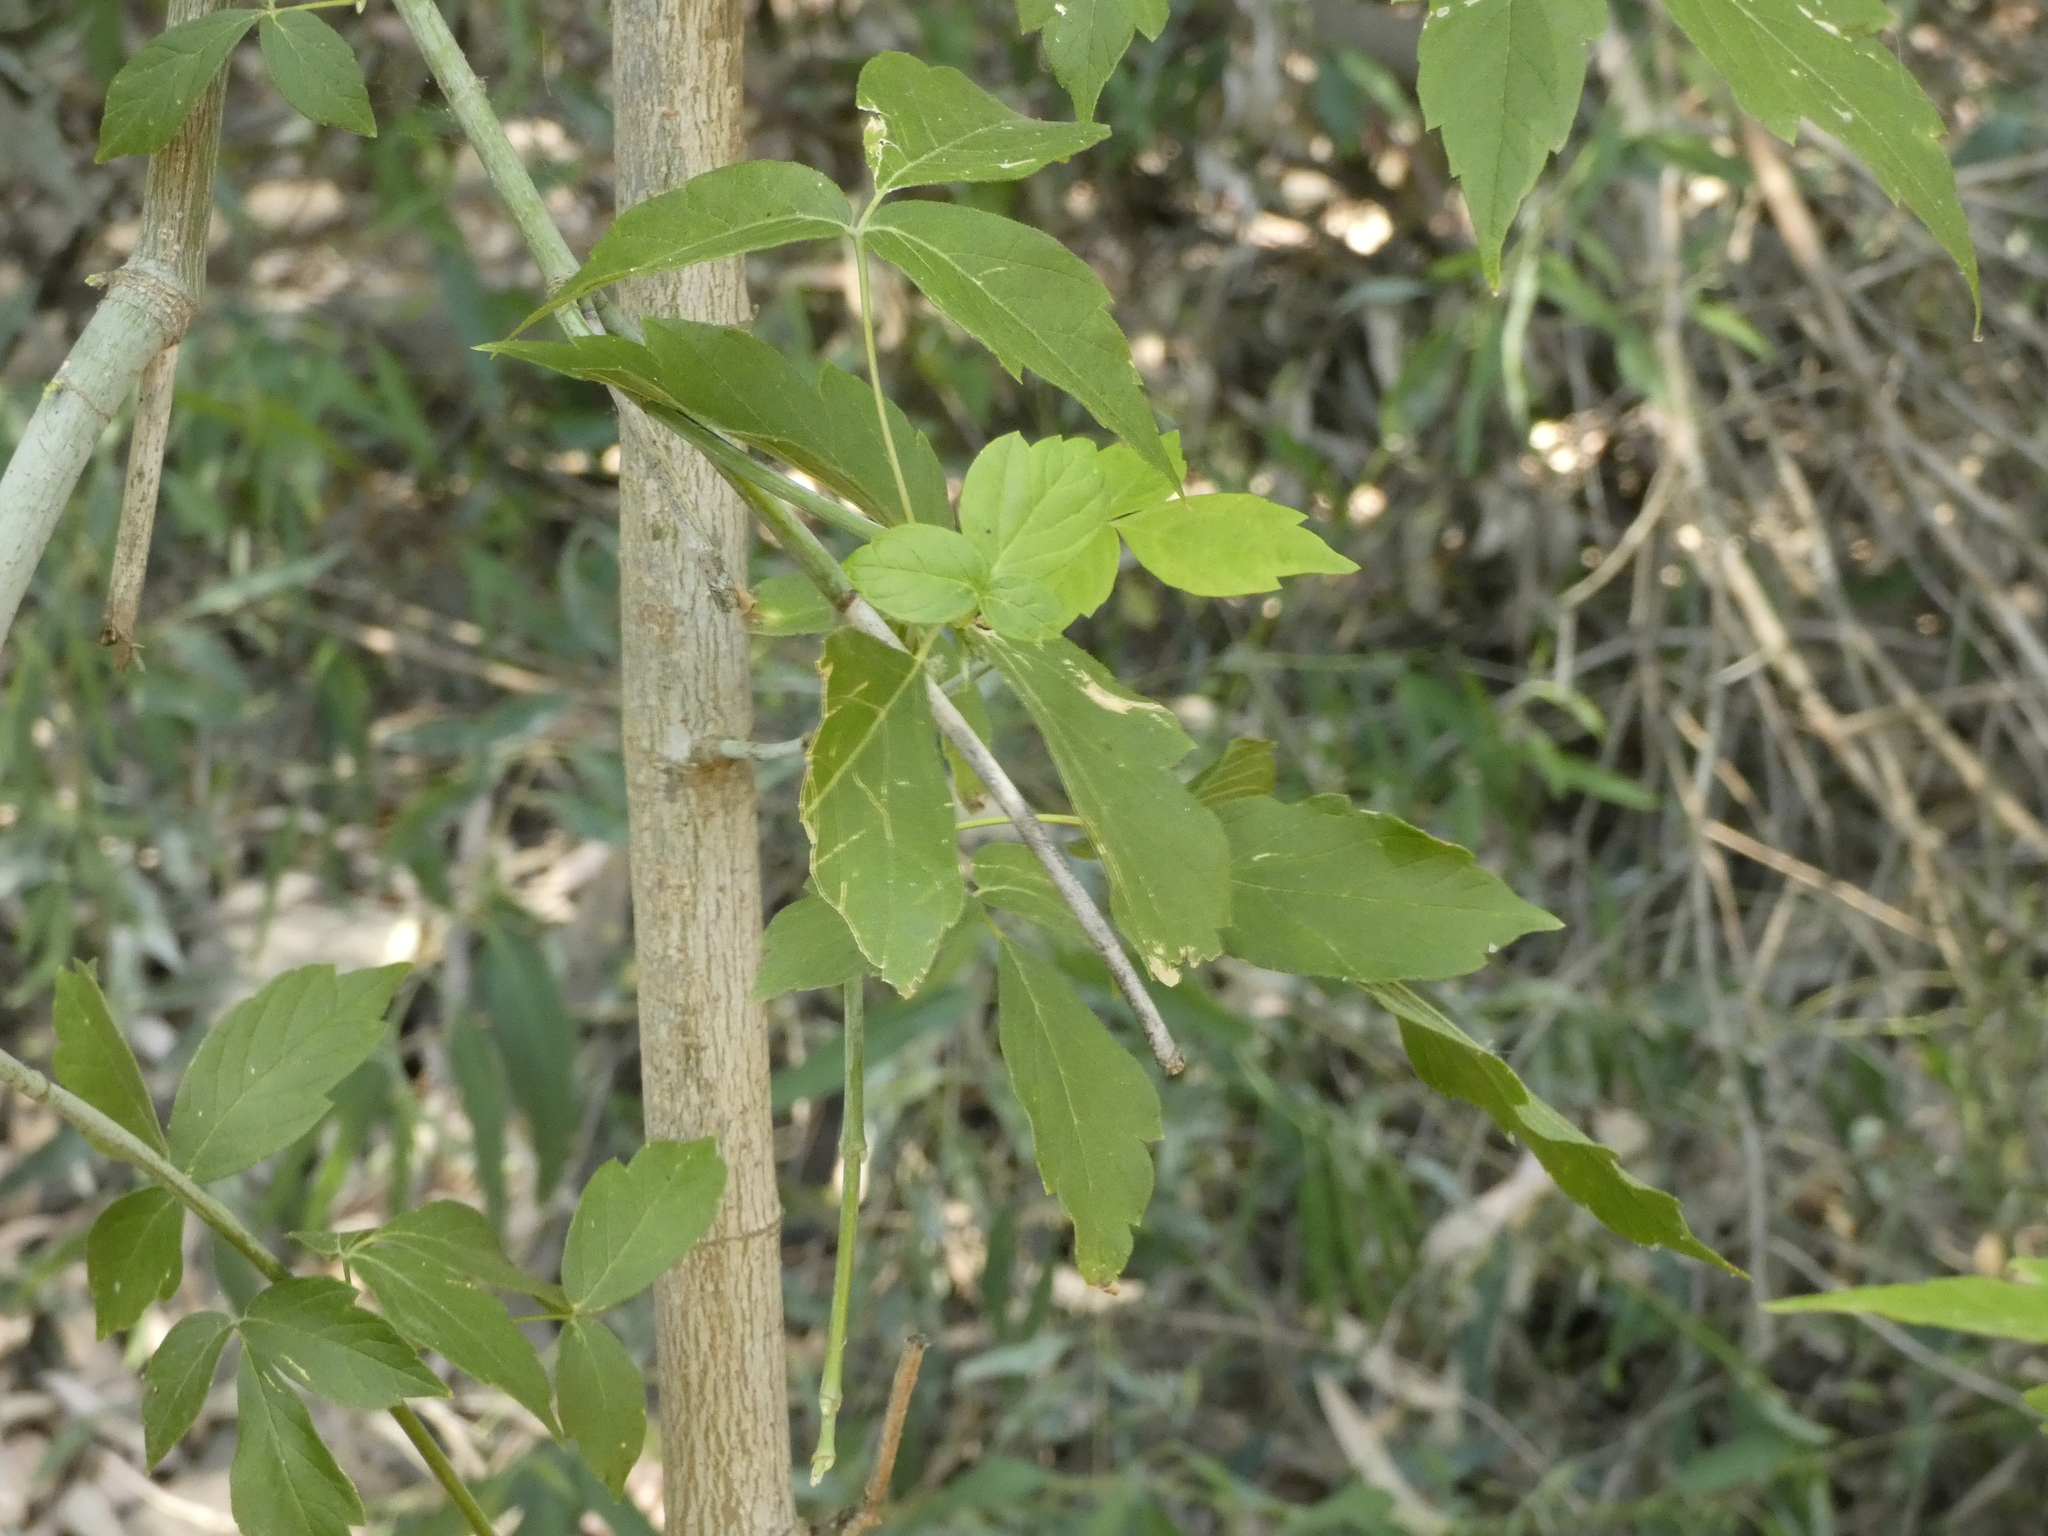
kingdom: Plantae
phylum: Tracheophyta
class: Magnoliopsida
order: Sapindales
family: Sapindaceae
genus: Acer
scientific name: Acer negundo
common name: Ashleaf maple
